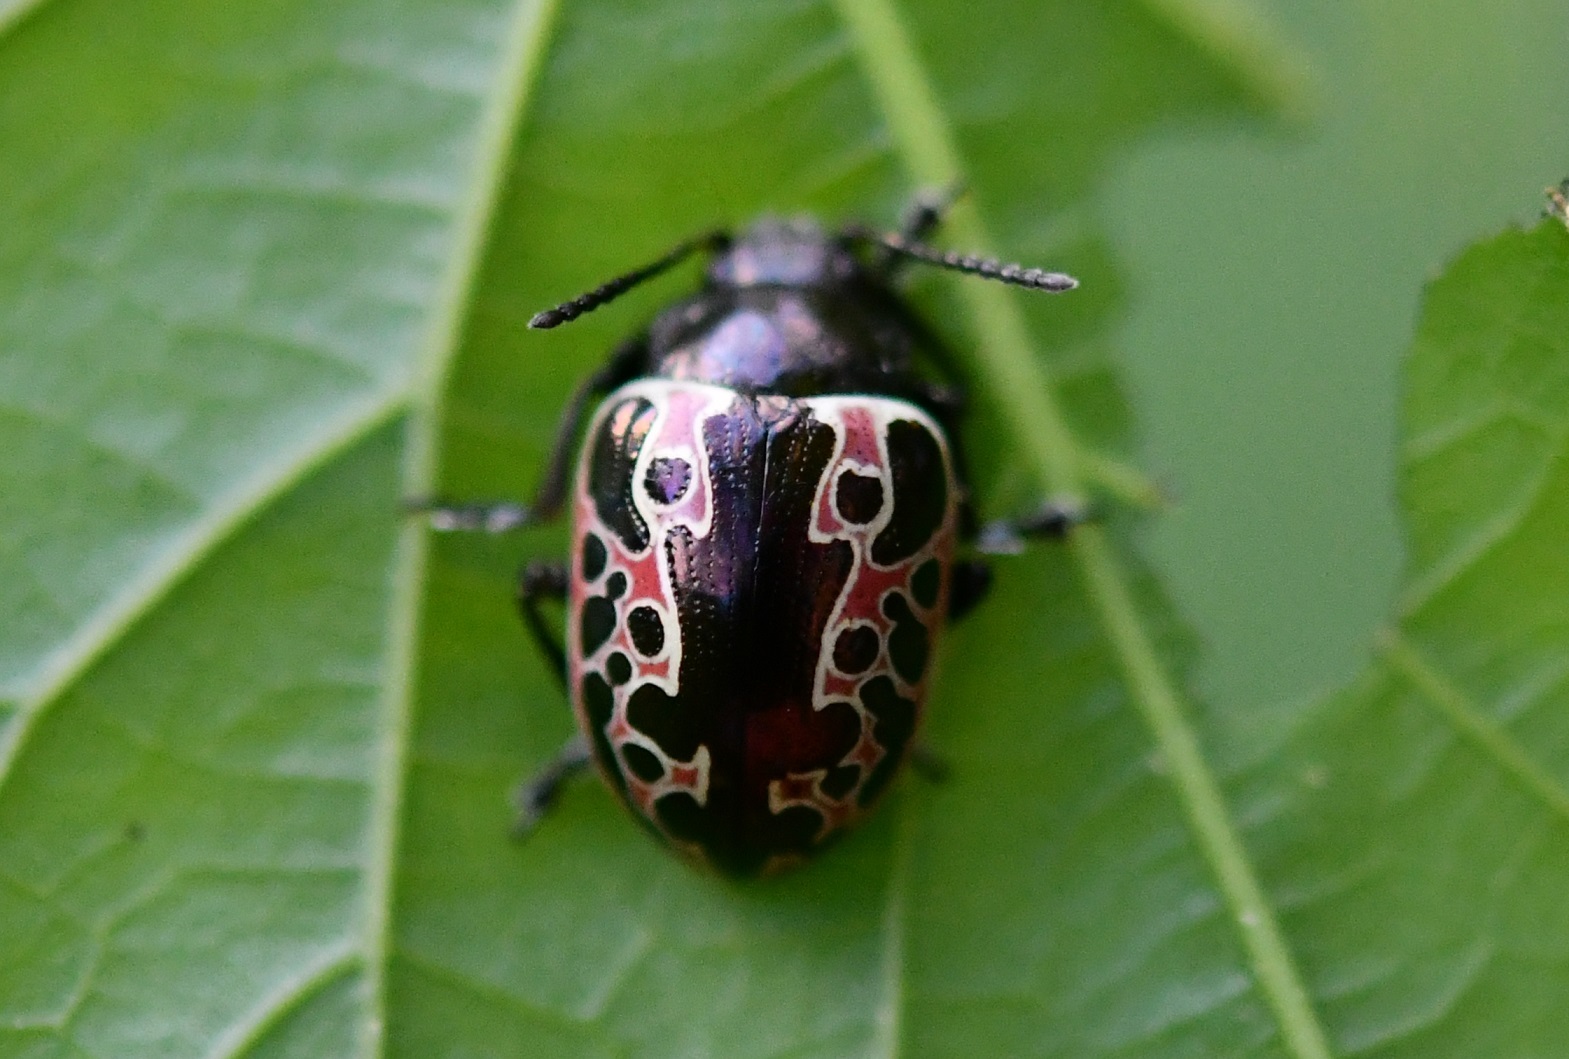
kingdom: Animalia
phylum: Arthropoda
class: Insecta
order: Coleoptera
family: Chrysomelidae
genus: Calligrapha
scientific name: Calligrapha diversa
